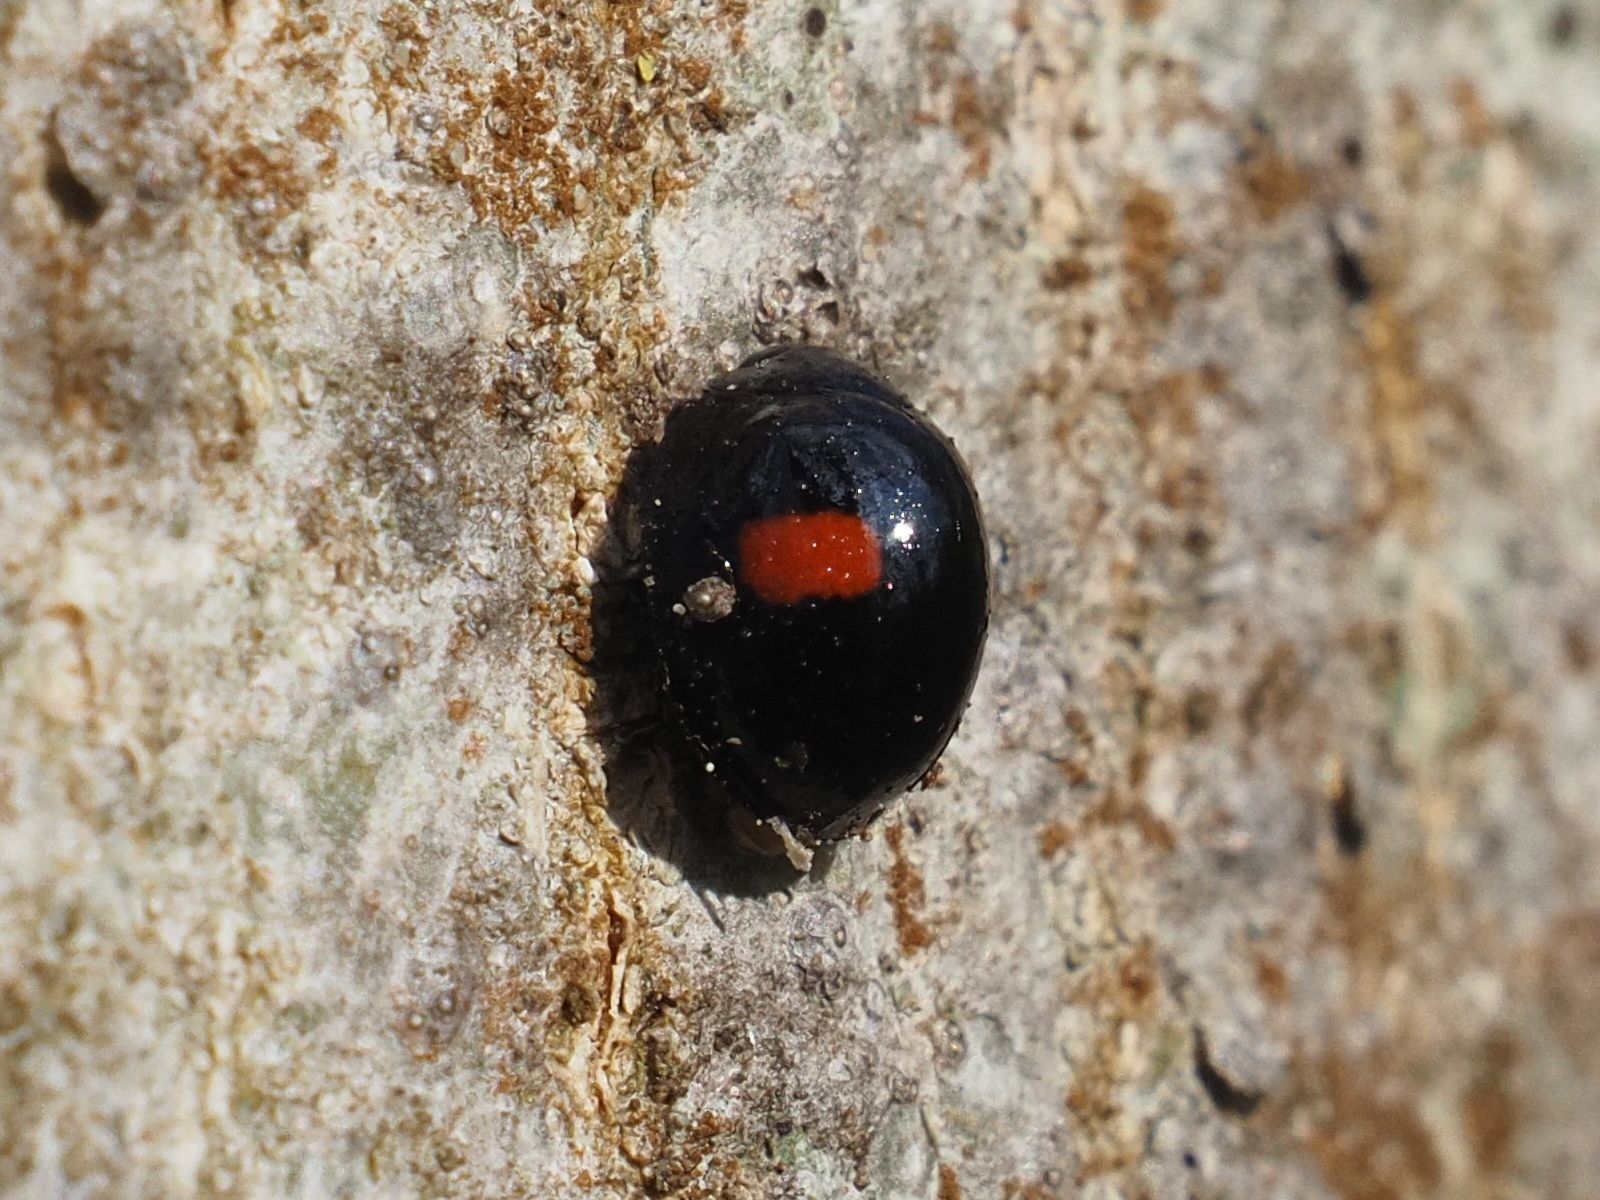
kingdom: Animalia
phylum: Arthropoda
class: Insecta
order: Coleoptera
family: Coccinellidae
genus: Chilocorus
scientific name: Chilocorus renipustulatus
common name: Kidney-spot ladybird
